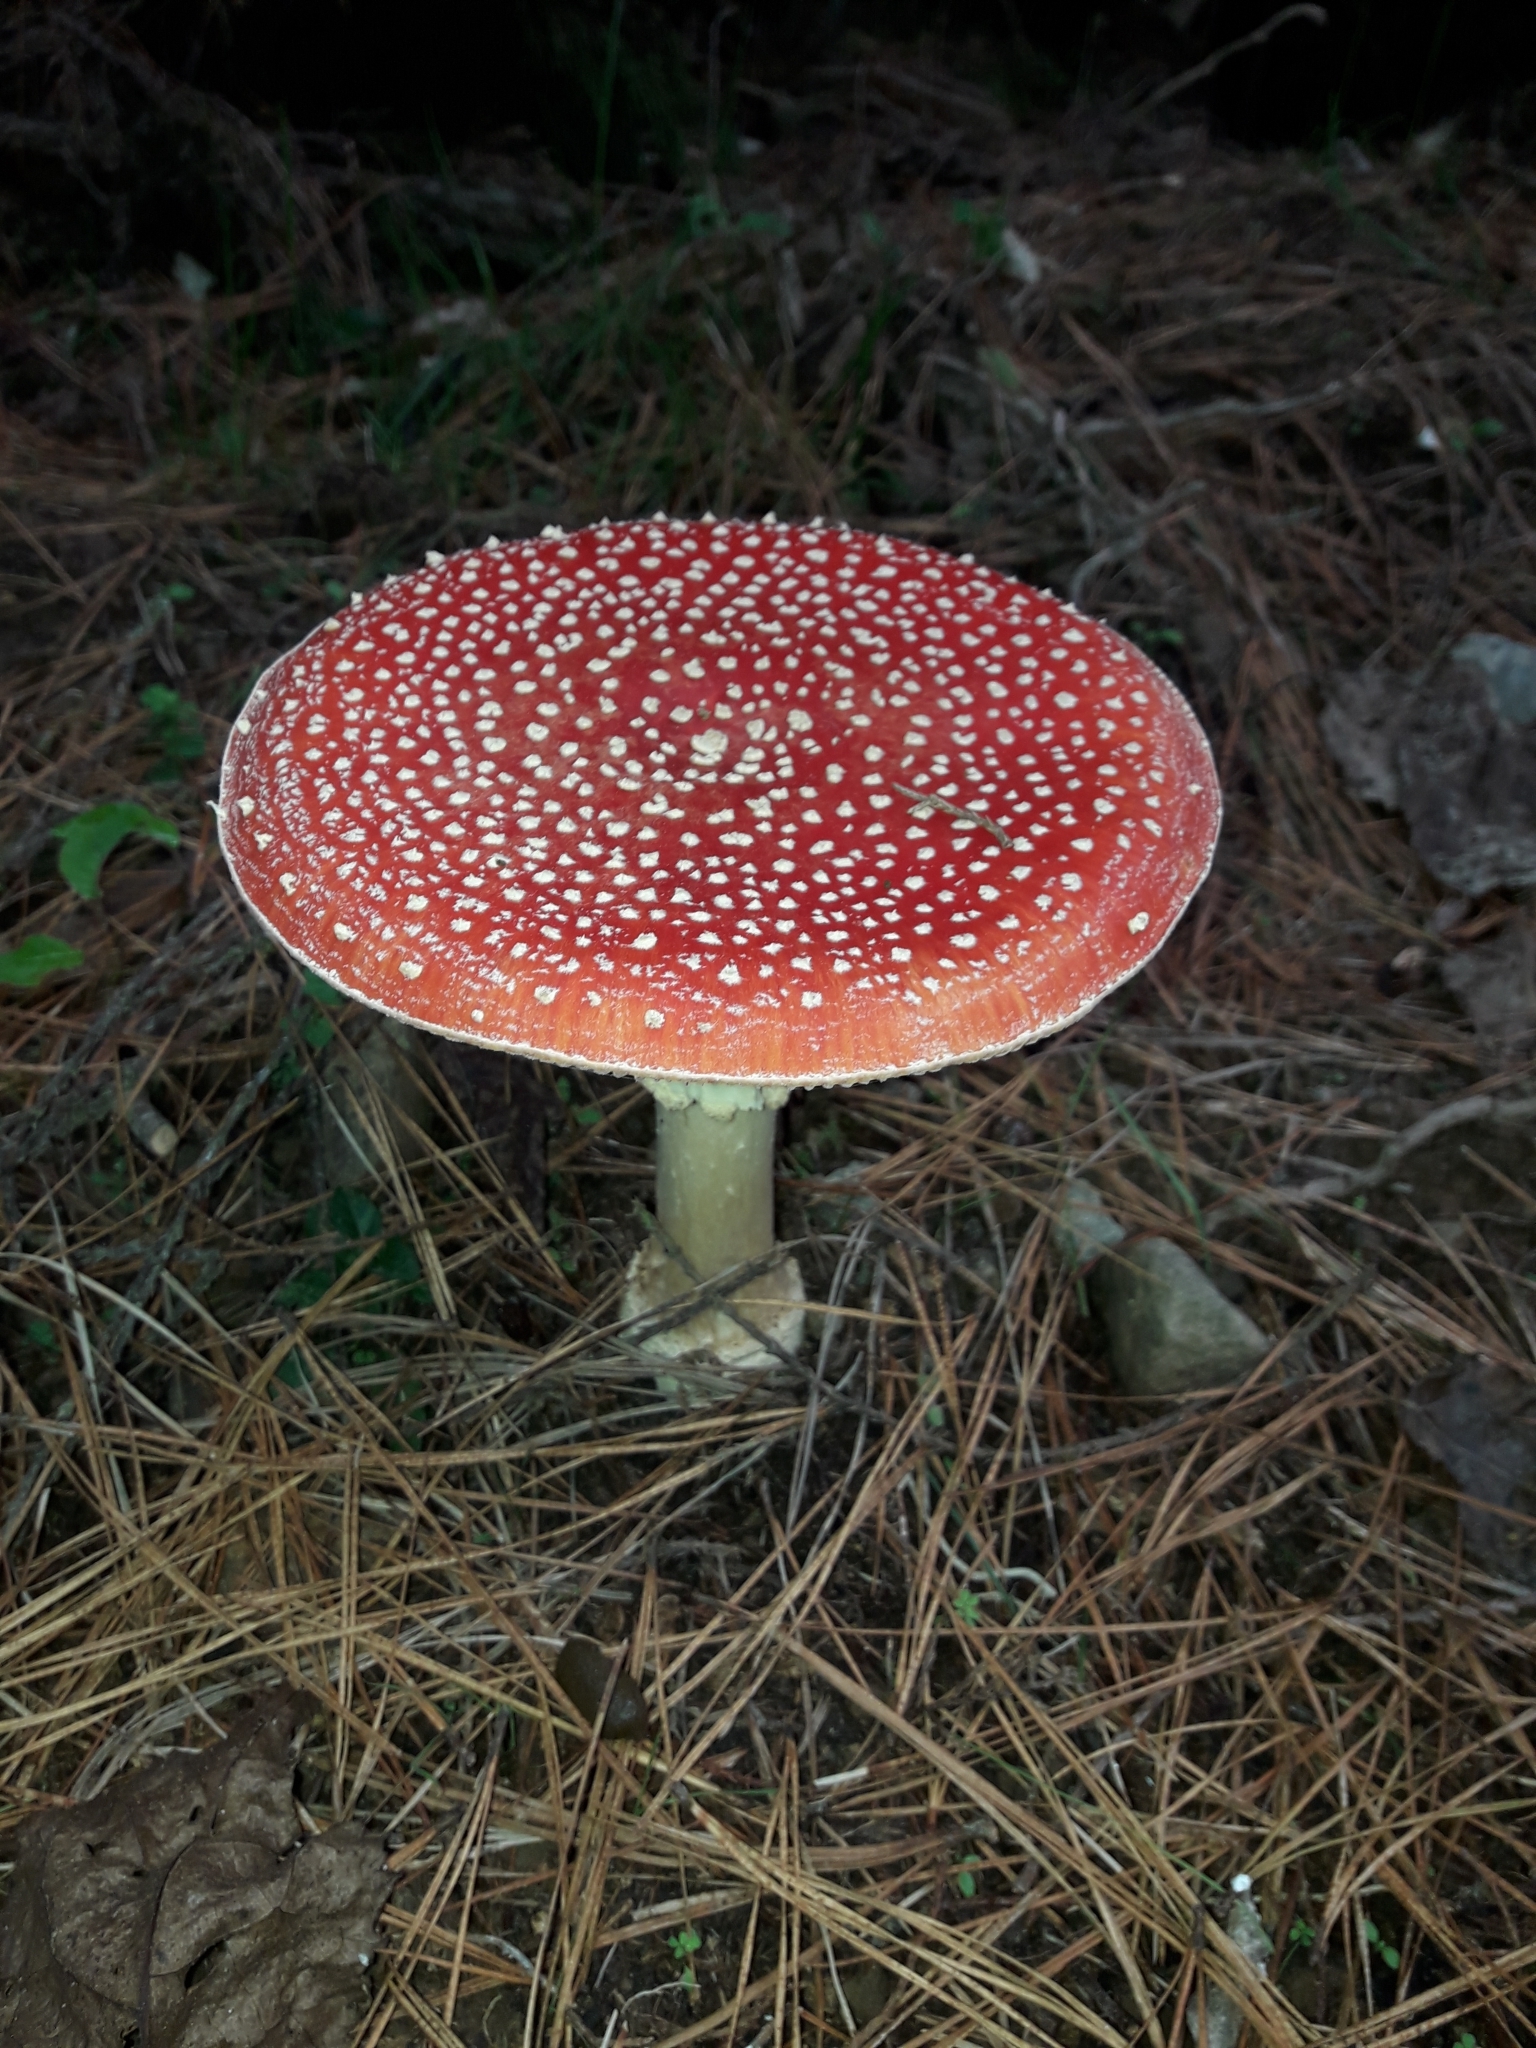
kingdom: Fungi
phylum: Basidiomycota
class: Agaricomycetes
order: Agaricales
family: Amanitaceae
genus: Amanita
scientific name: Amanita muscaria
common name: Fly agaric
